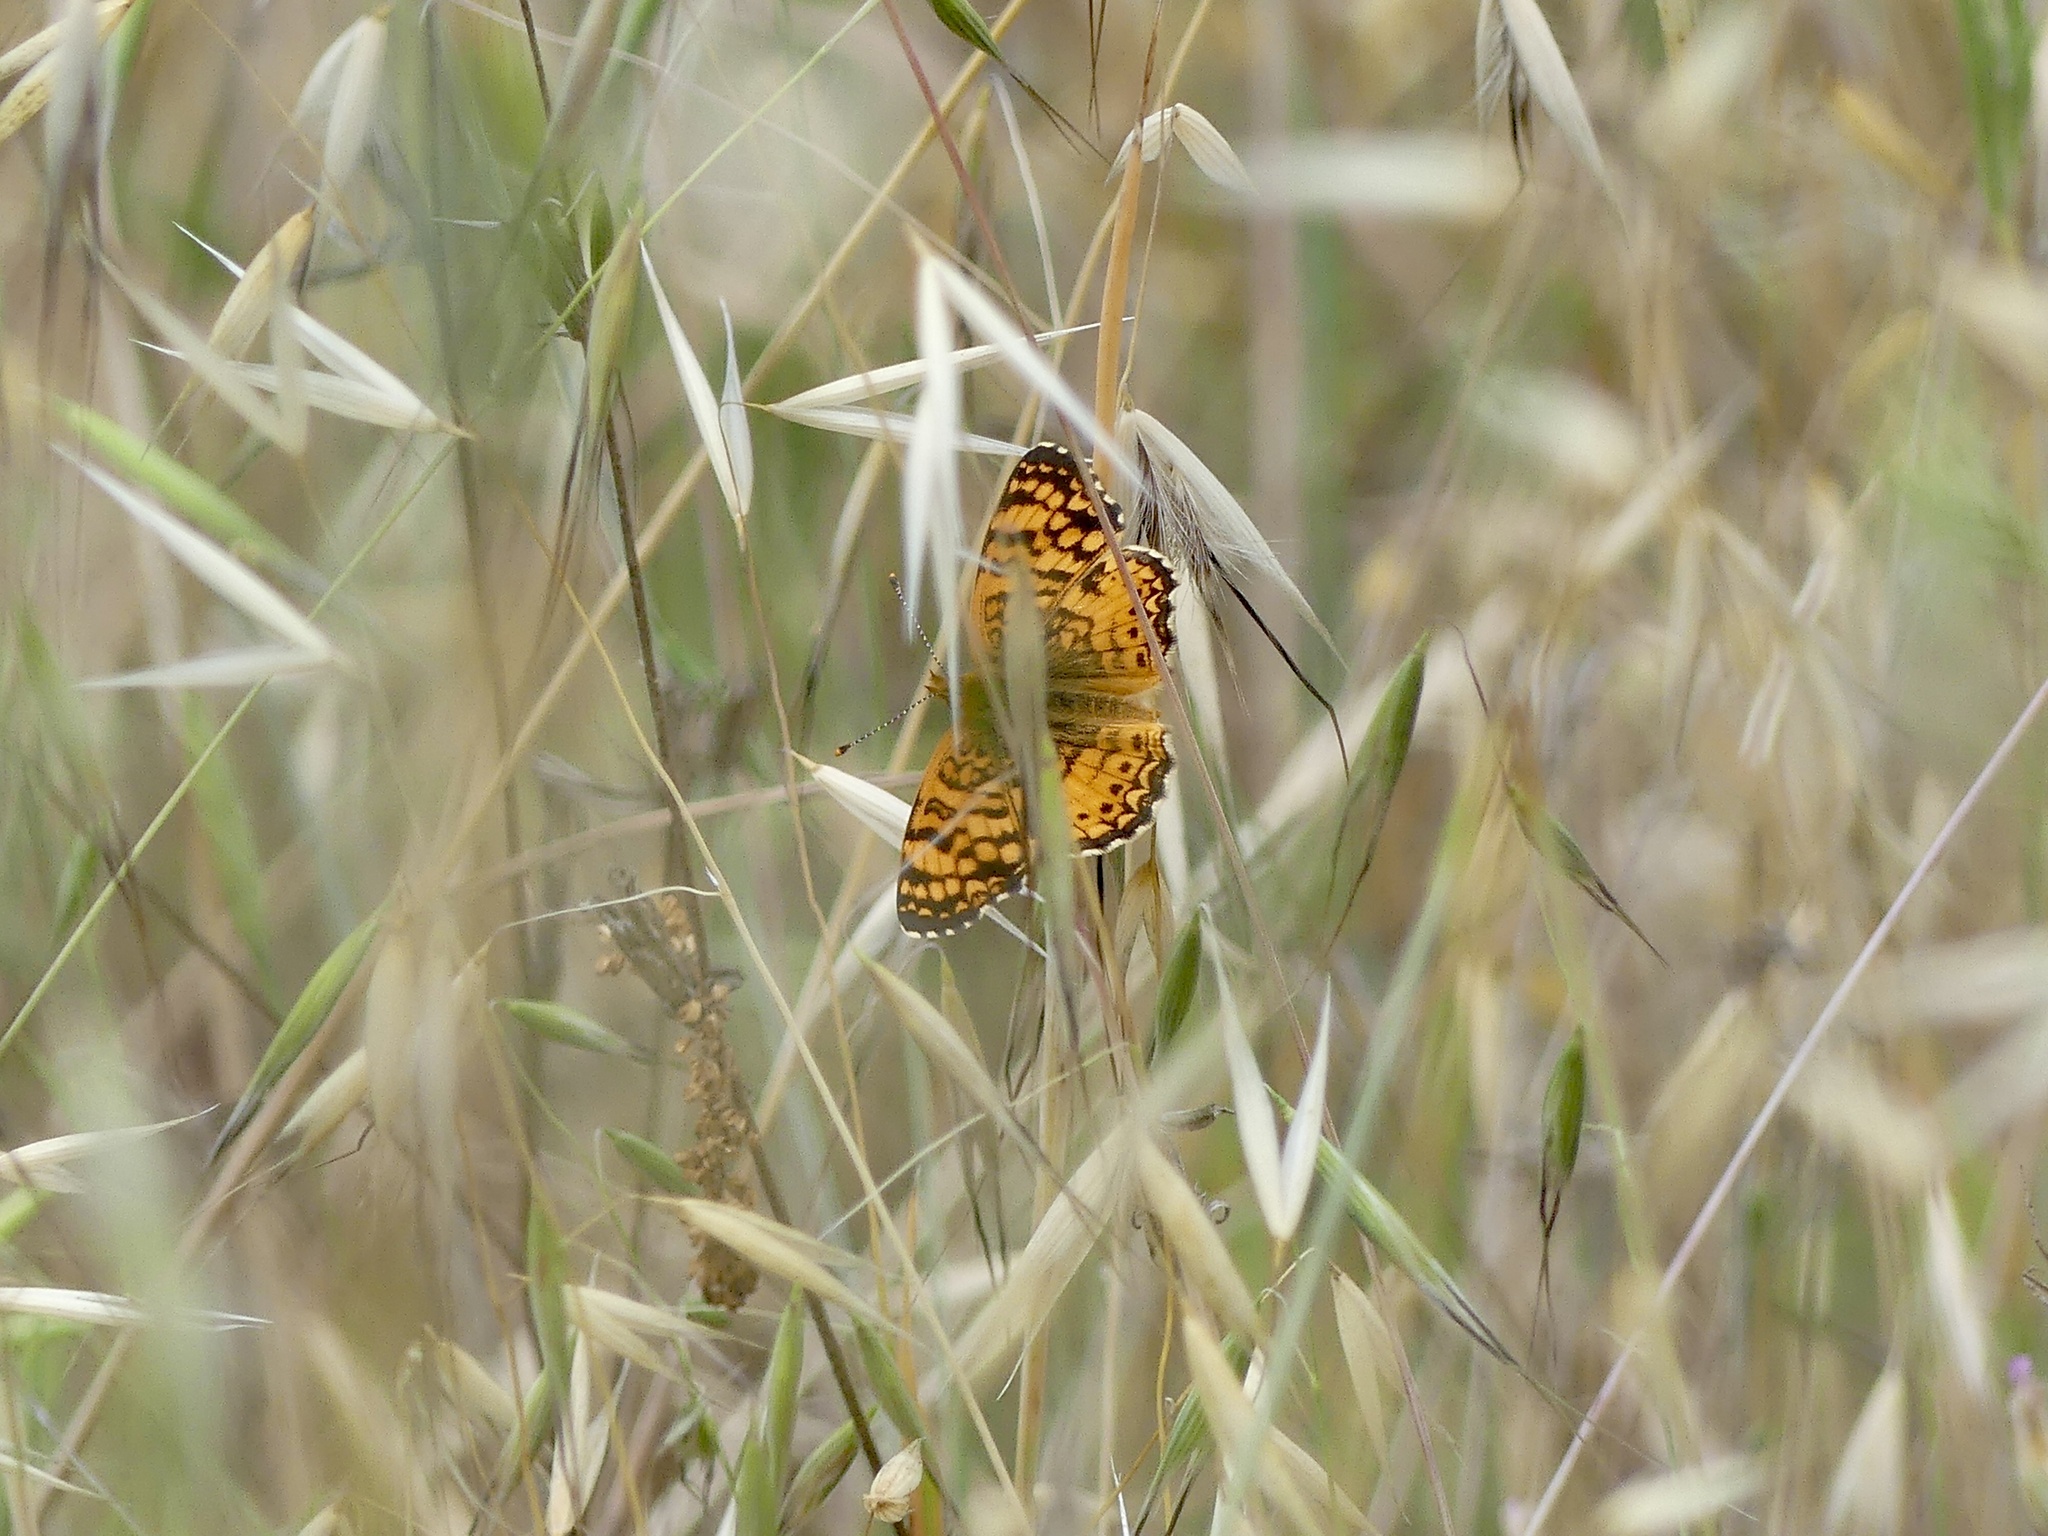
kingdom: Animalia
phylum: Arthropoda
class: Insecta
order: Lepidoptera
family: Nymphalidae
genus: Eresia
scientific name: Eresia aveyrona
